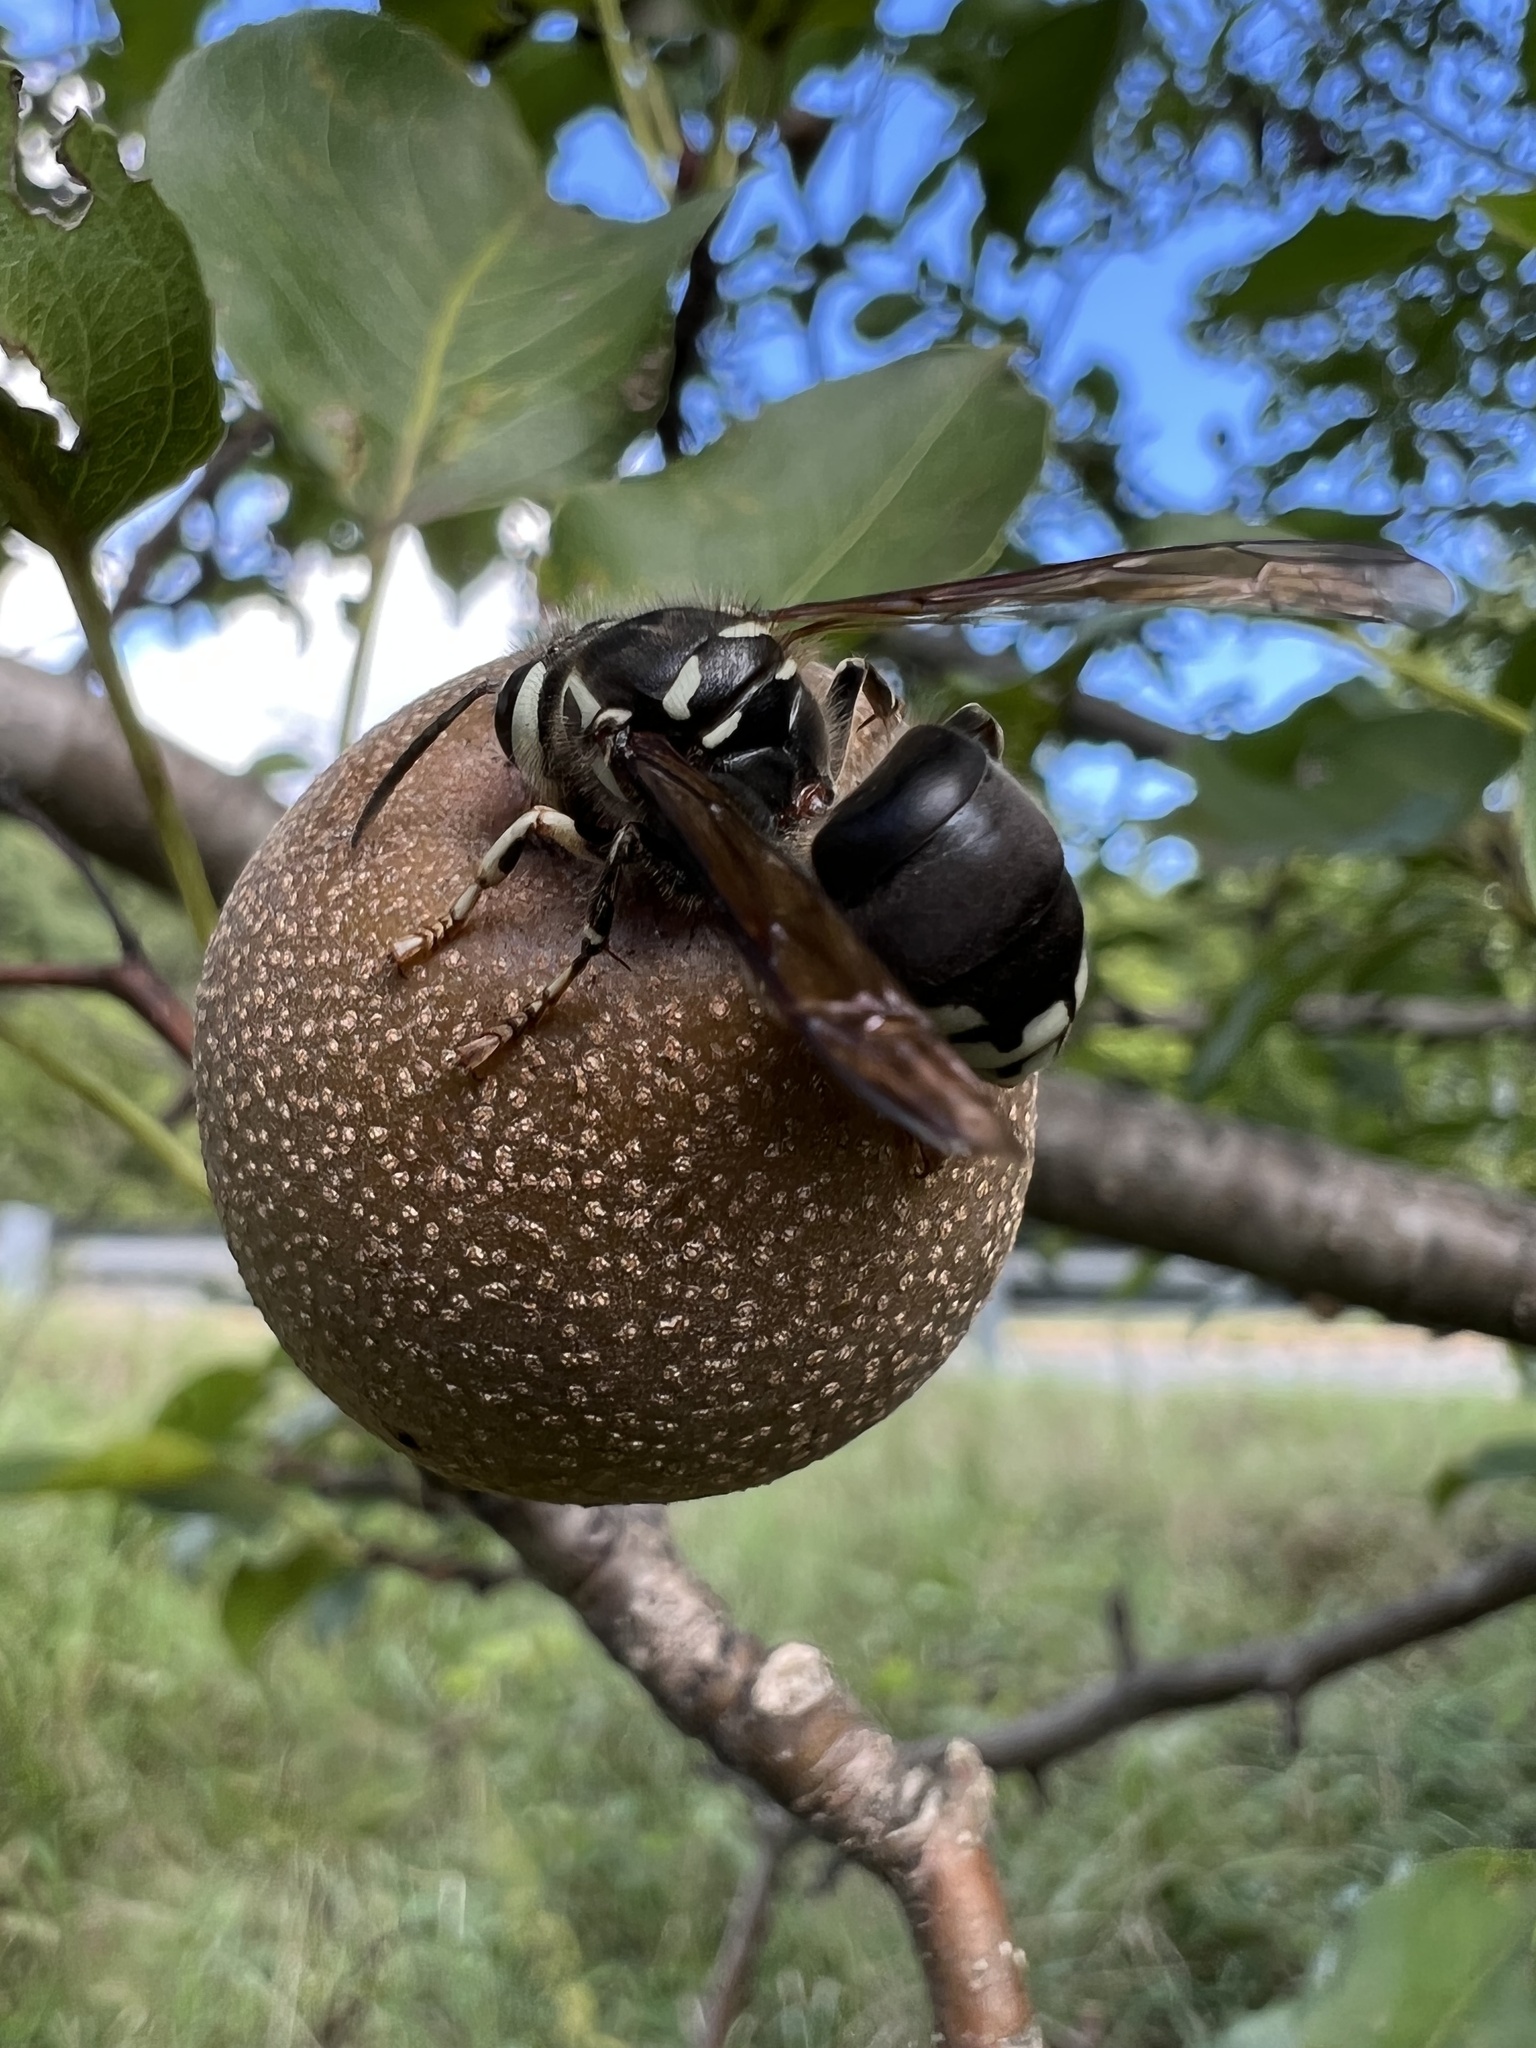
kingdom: Animalia
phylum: Arthropoda
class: Insecta
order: Hymenoptera
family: Vespidae
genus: Dolichovespula
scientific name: Dolichovespula maculata
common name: Bald-faced hornet
